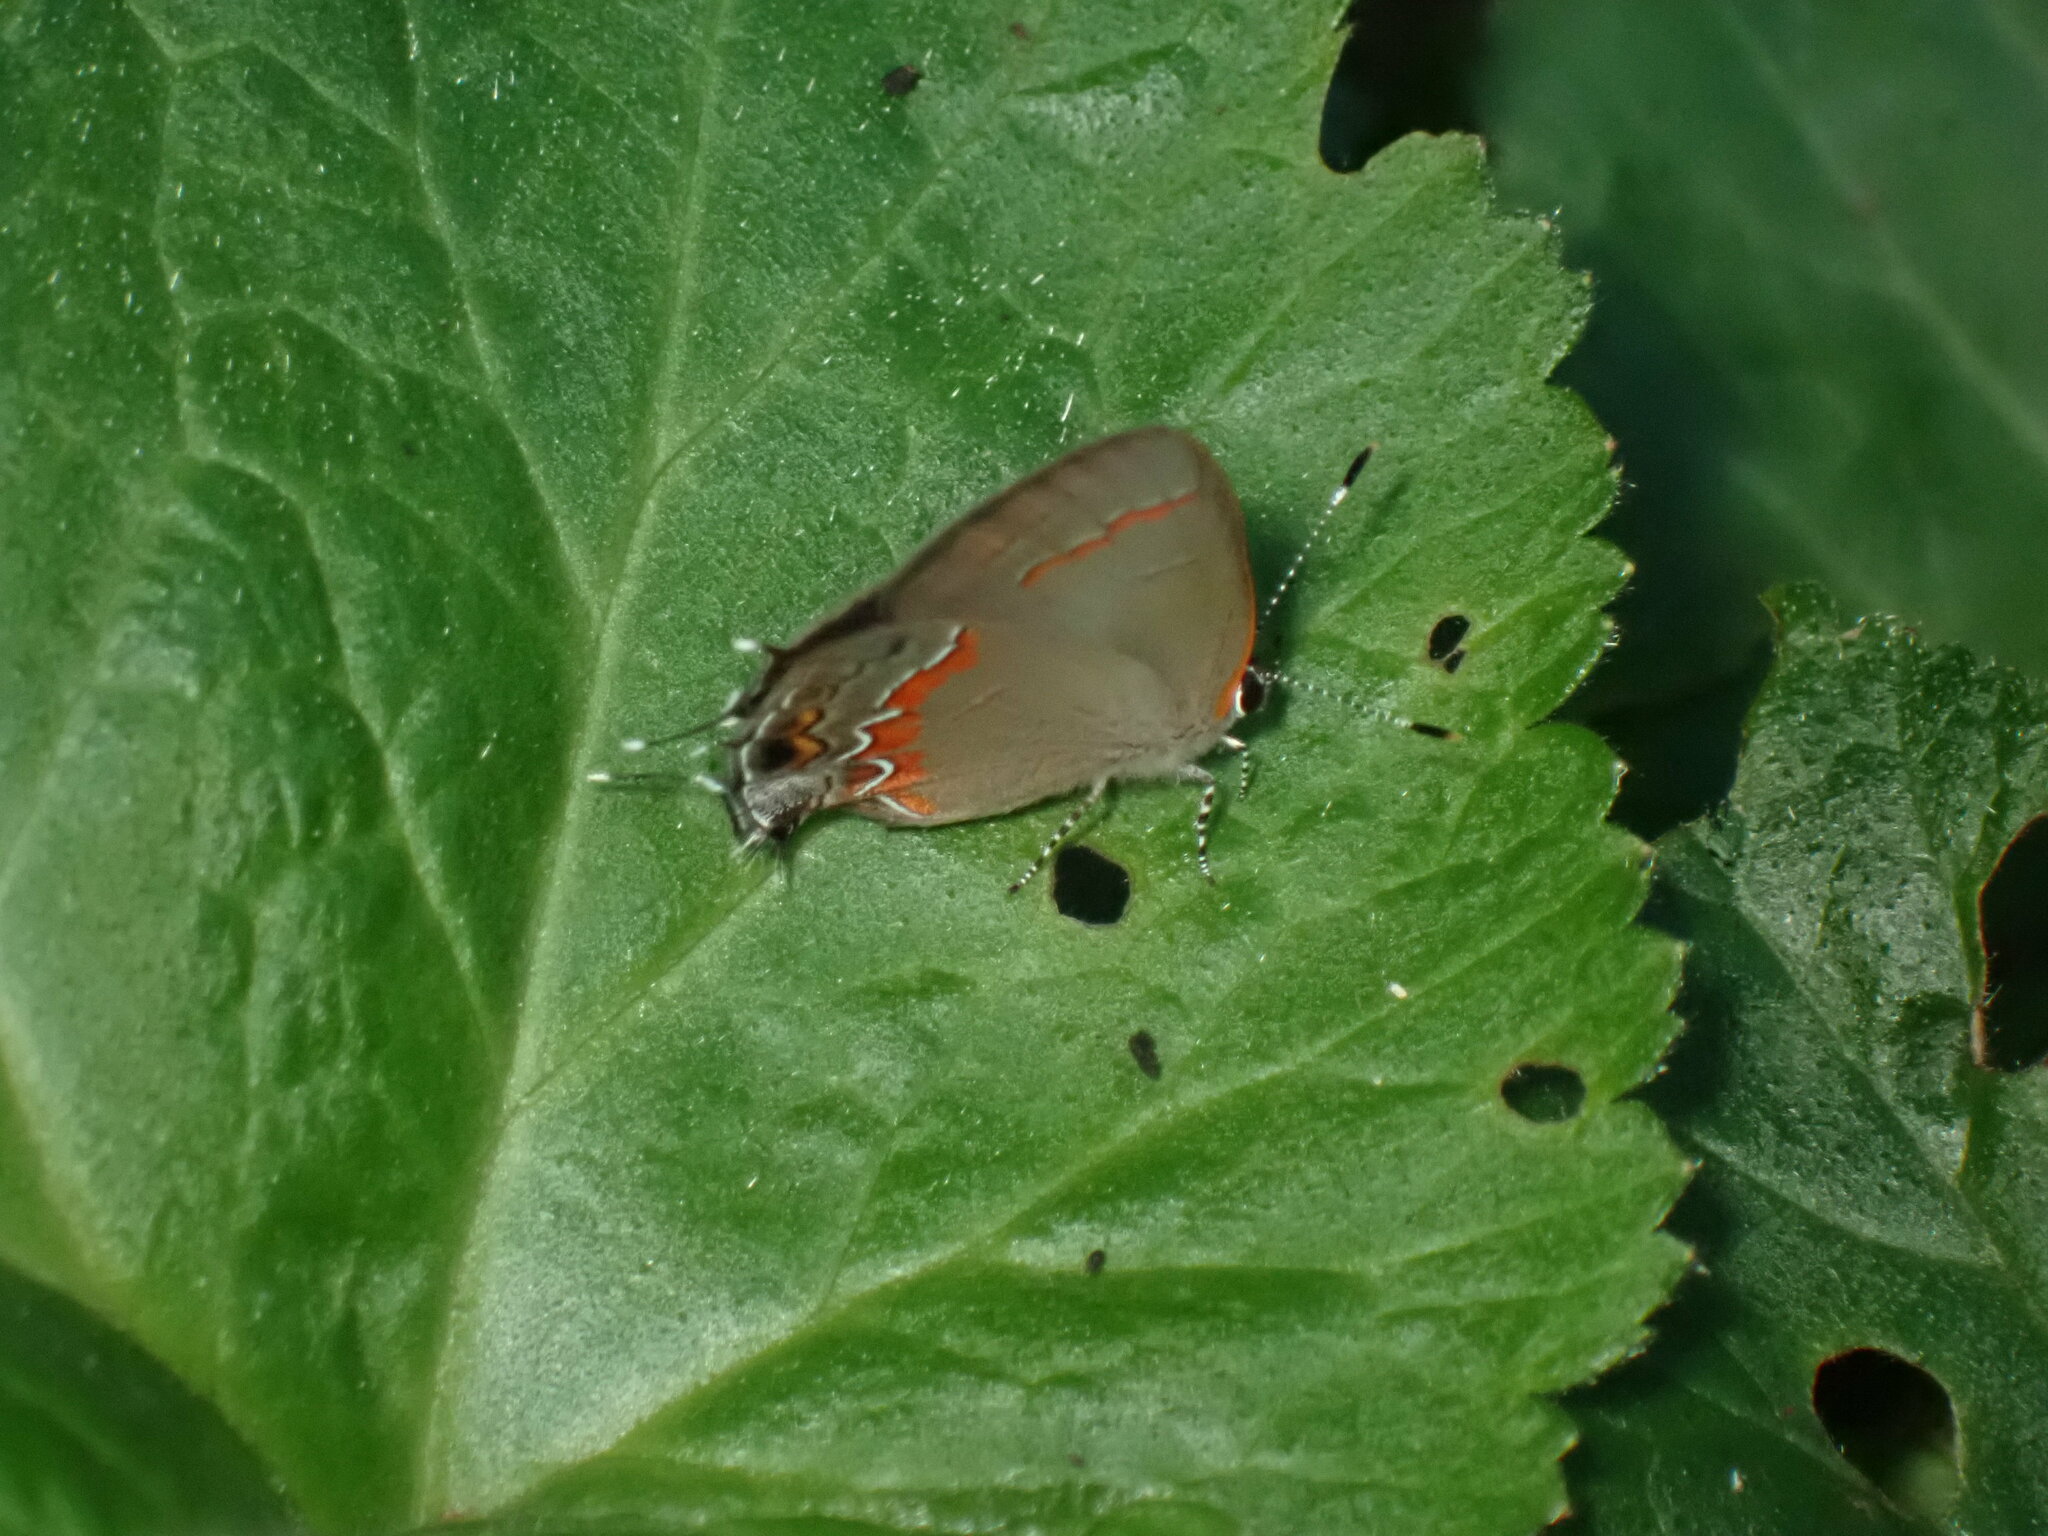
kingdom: Animalia
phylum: Arthropoda
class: Insecta
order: Lepidoptera
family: Lycaenidae
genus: Calycopis
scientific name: Calycopis cecrops
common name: Red-banded hairstreak
